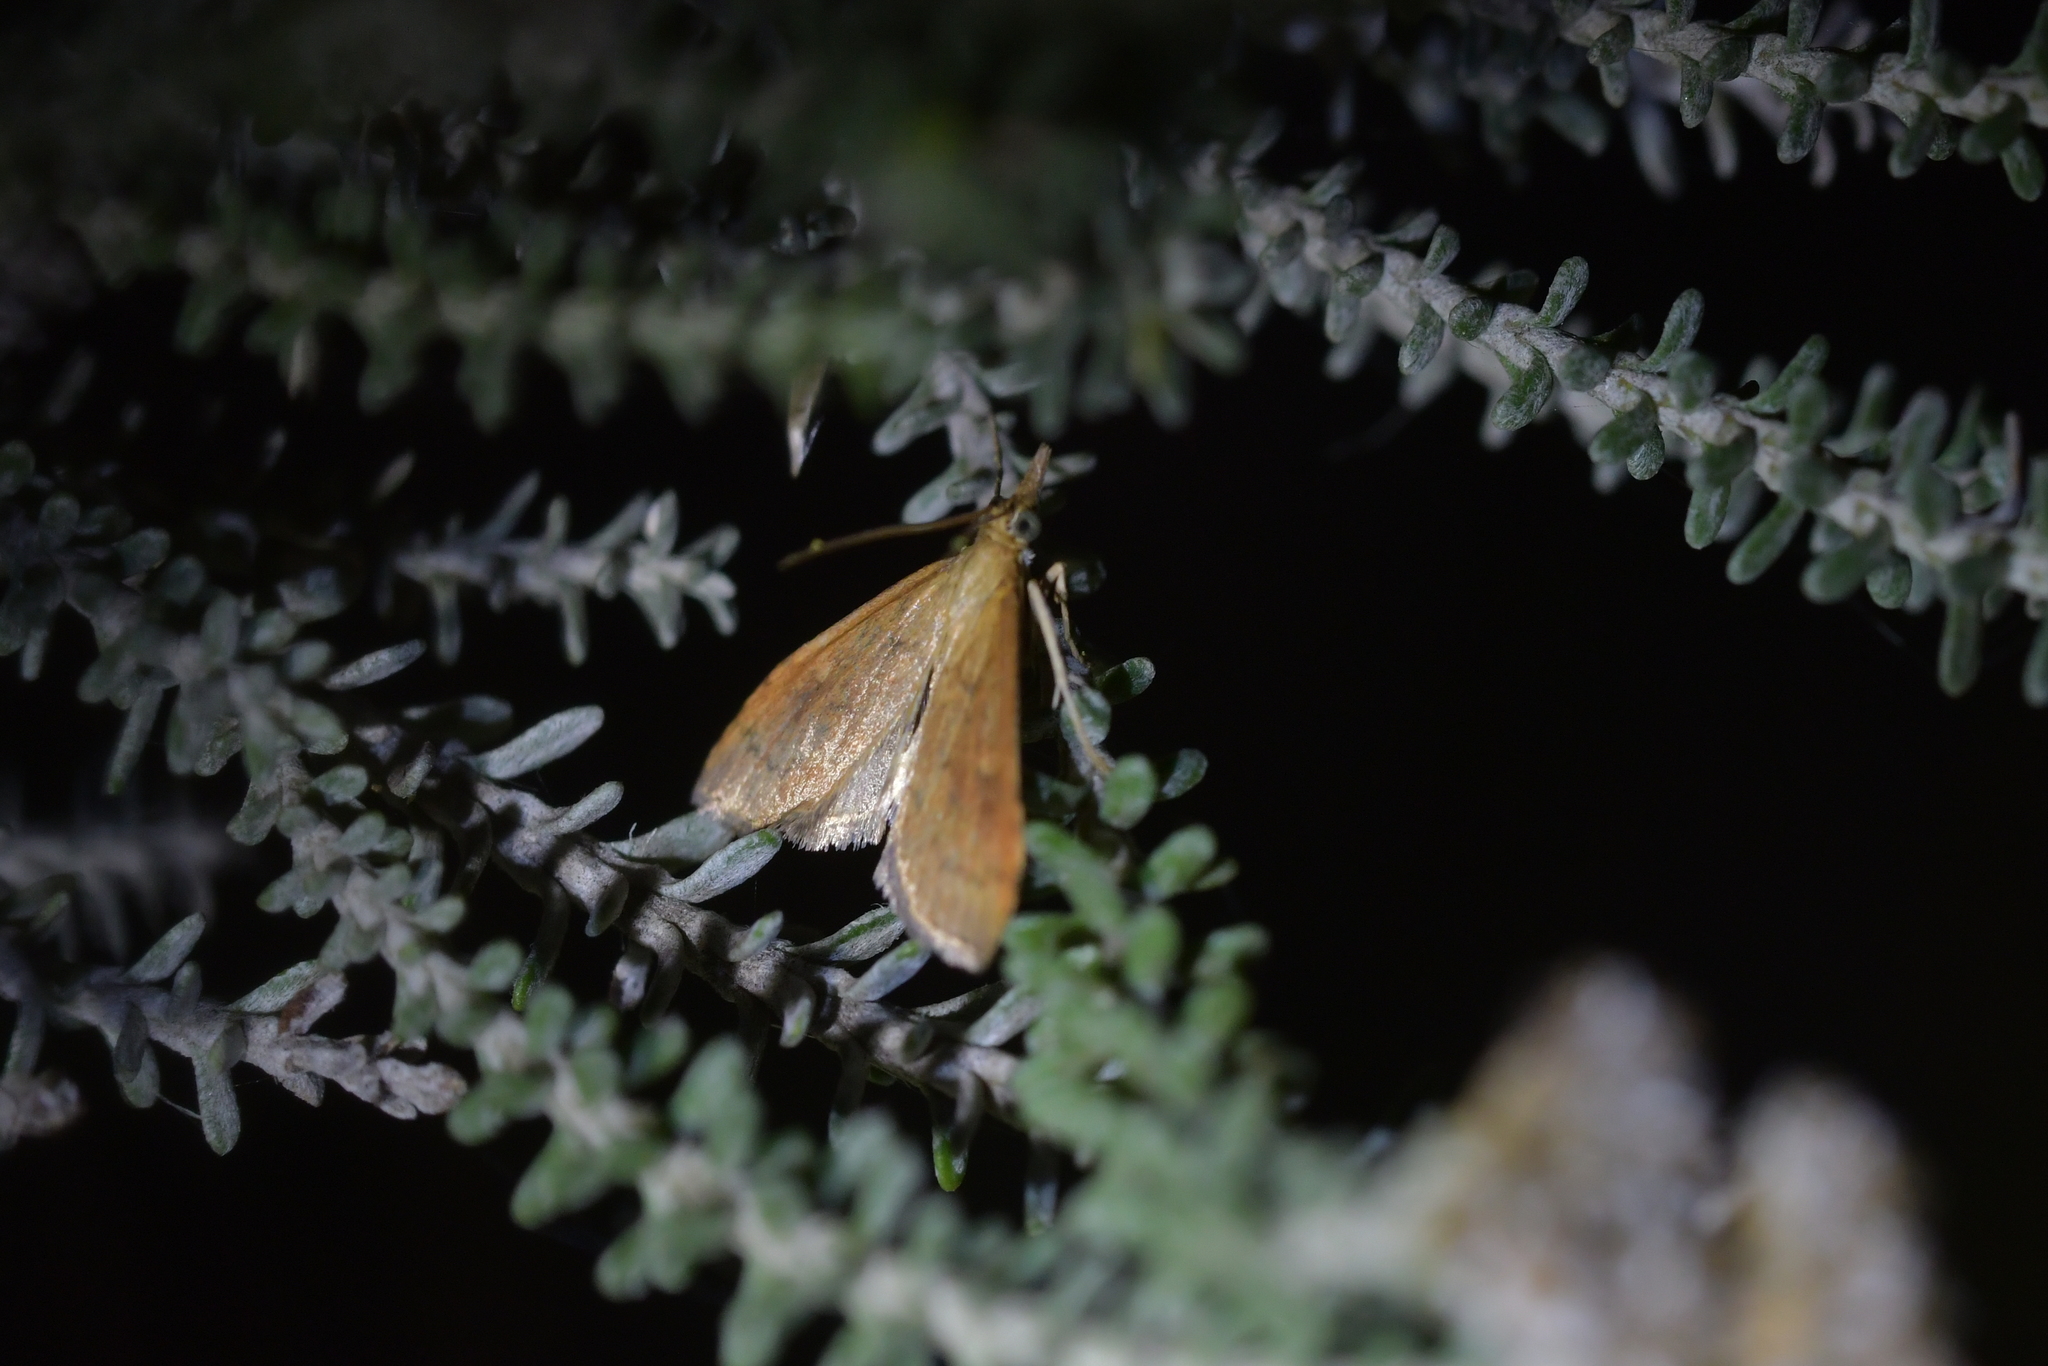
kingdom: Animalia
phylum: Arthropoda
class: Insecta
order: Lepidoptera
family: Crambidae
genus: Udea
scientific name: Udea Mnesictena flavidalis
